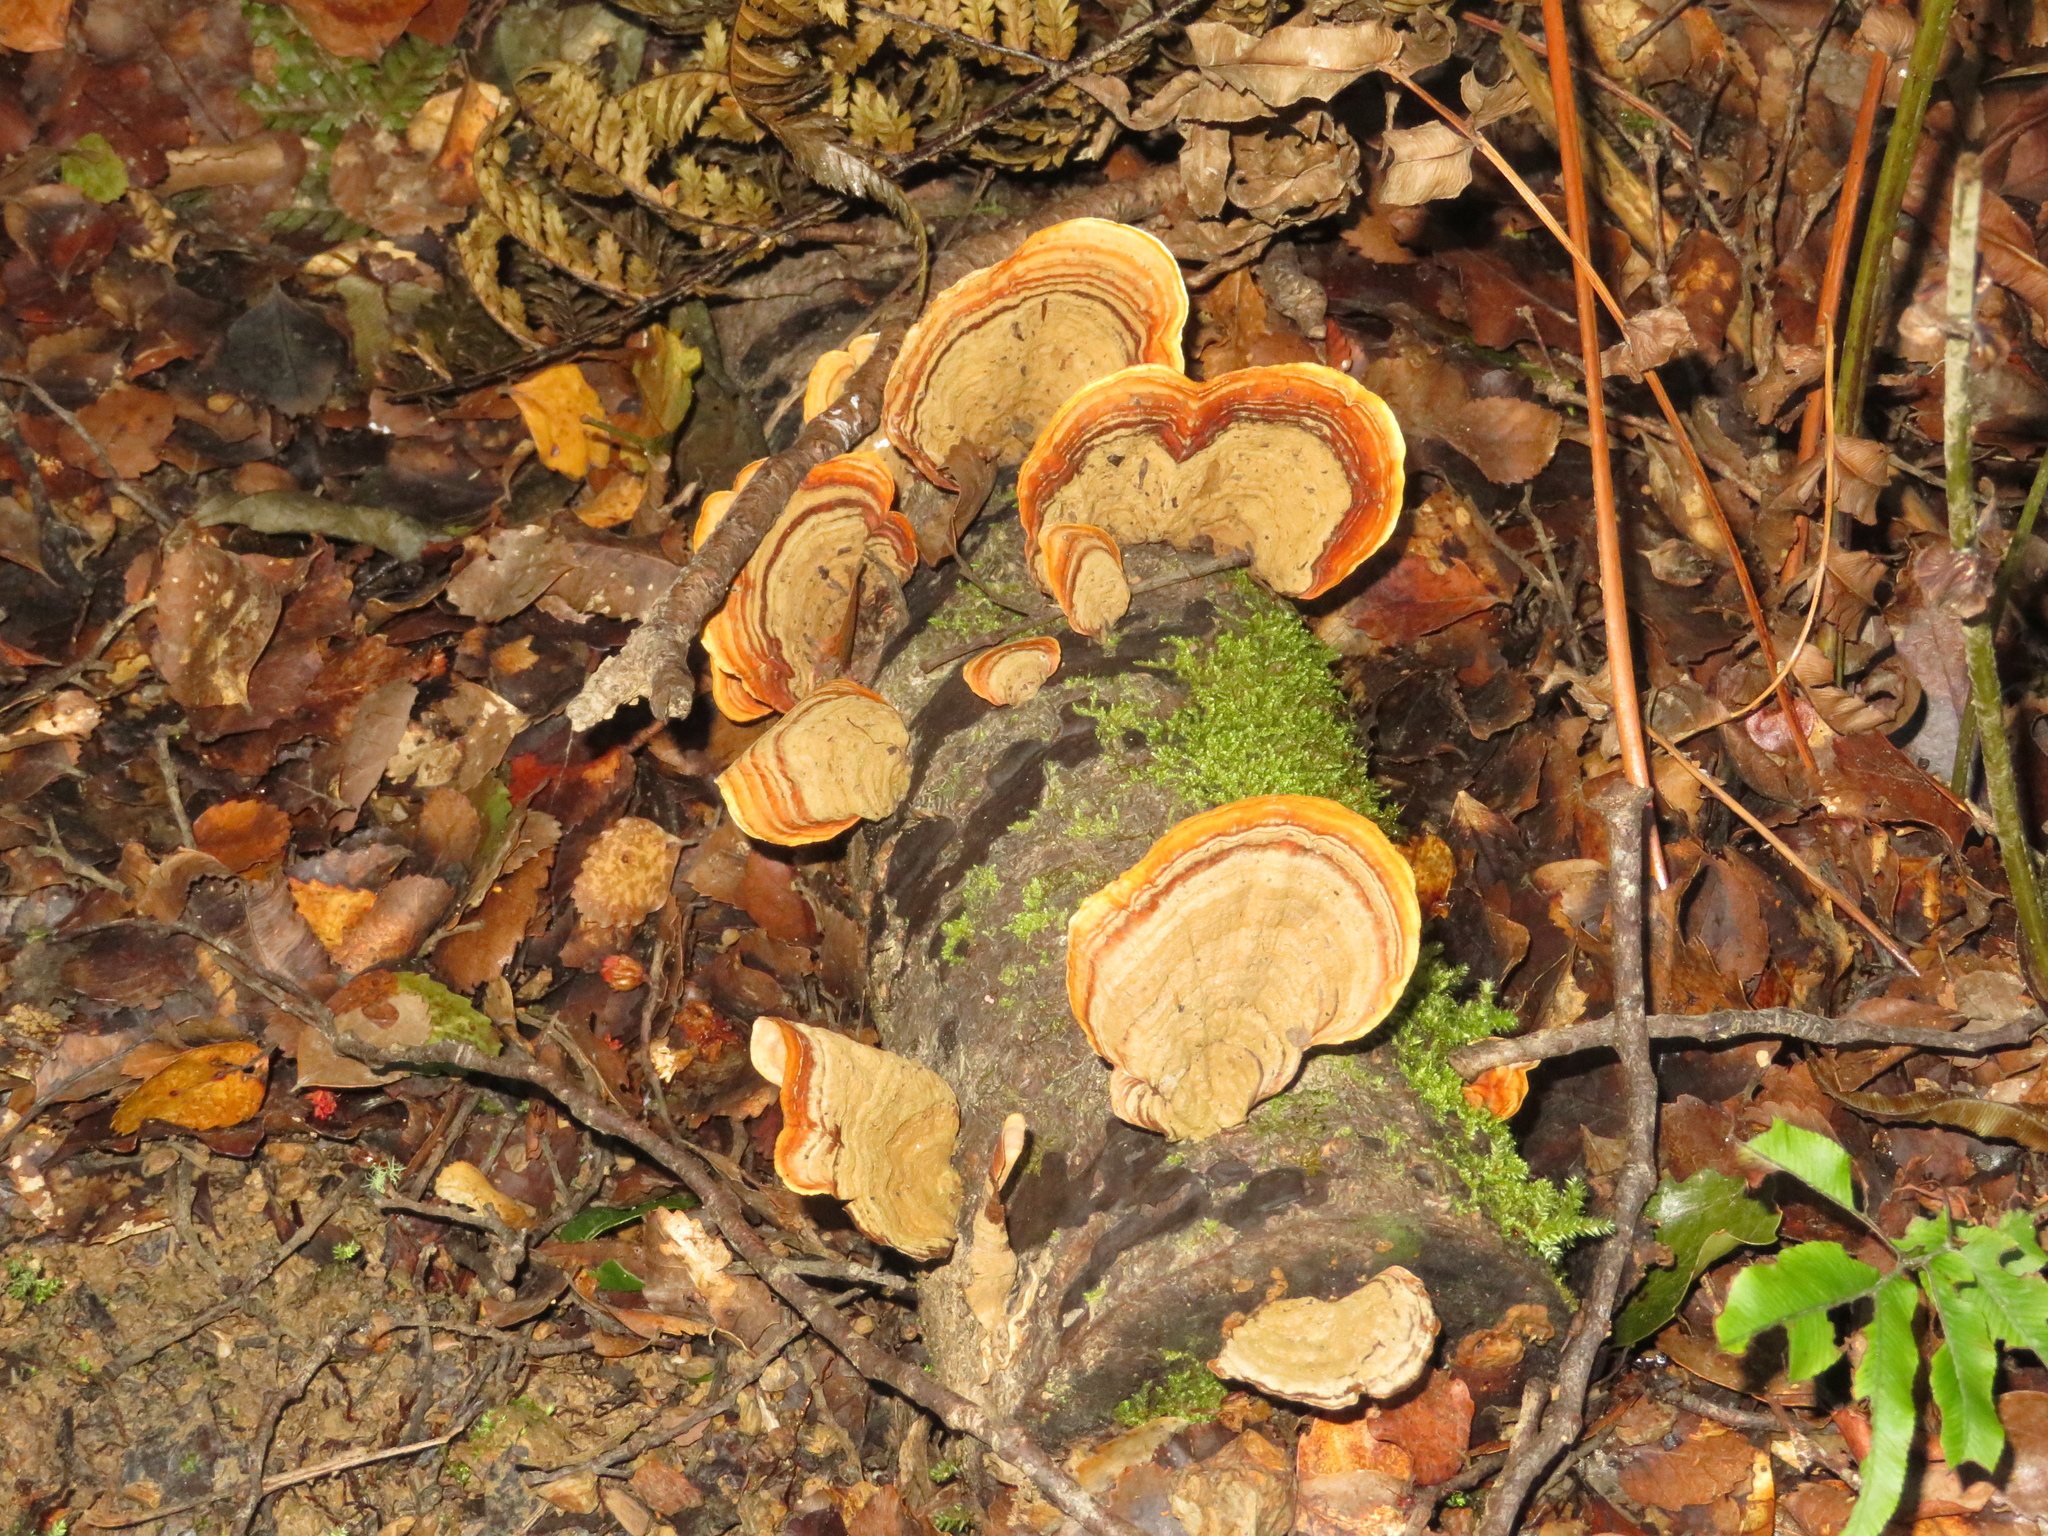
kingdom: Fungi
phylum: Basidiomycota
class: Agaricomycetes
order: Russulales
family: Stereaceae
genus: Stereum
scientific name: Stereum versicolor
